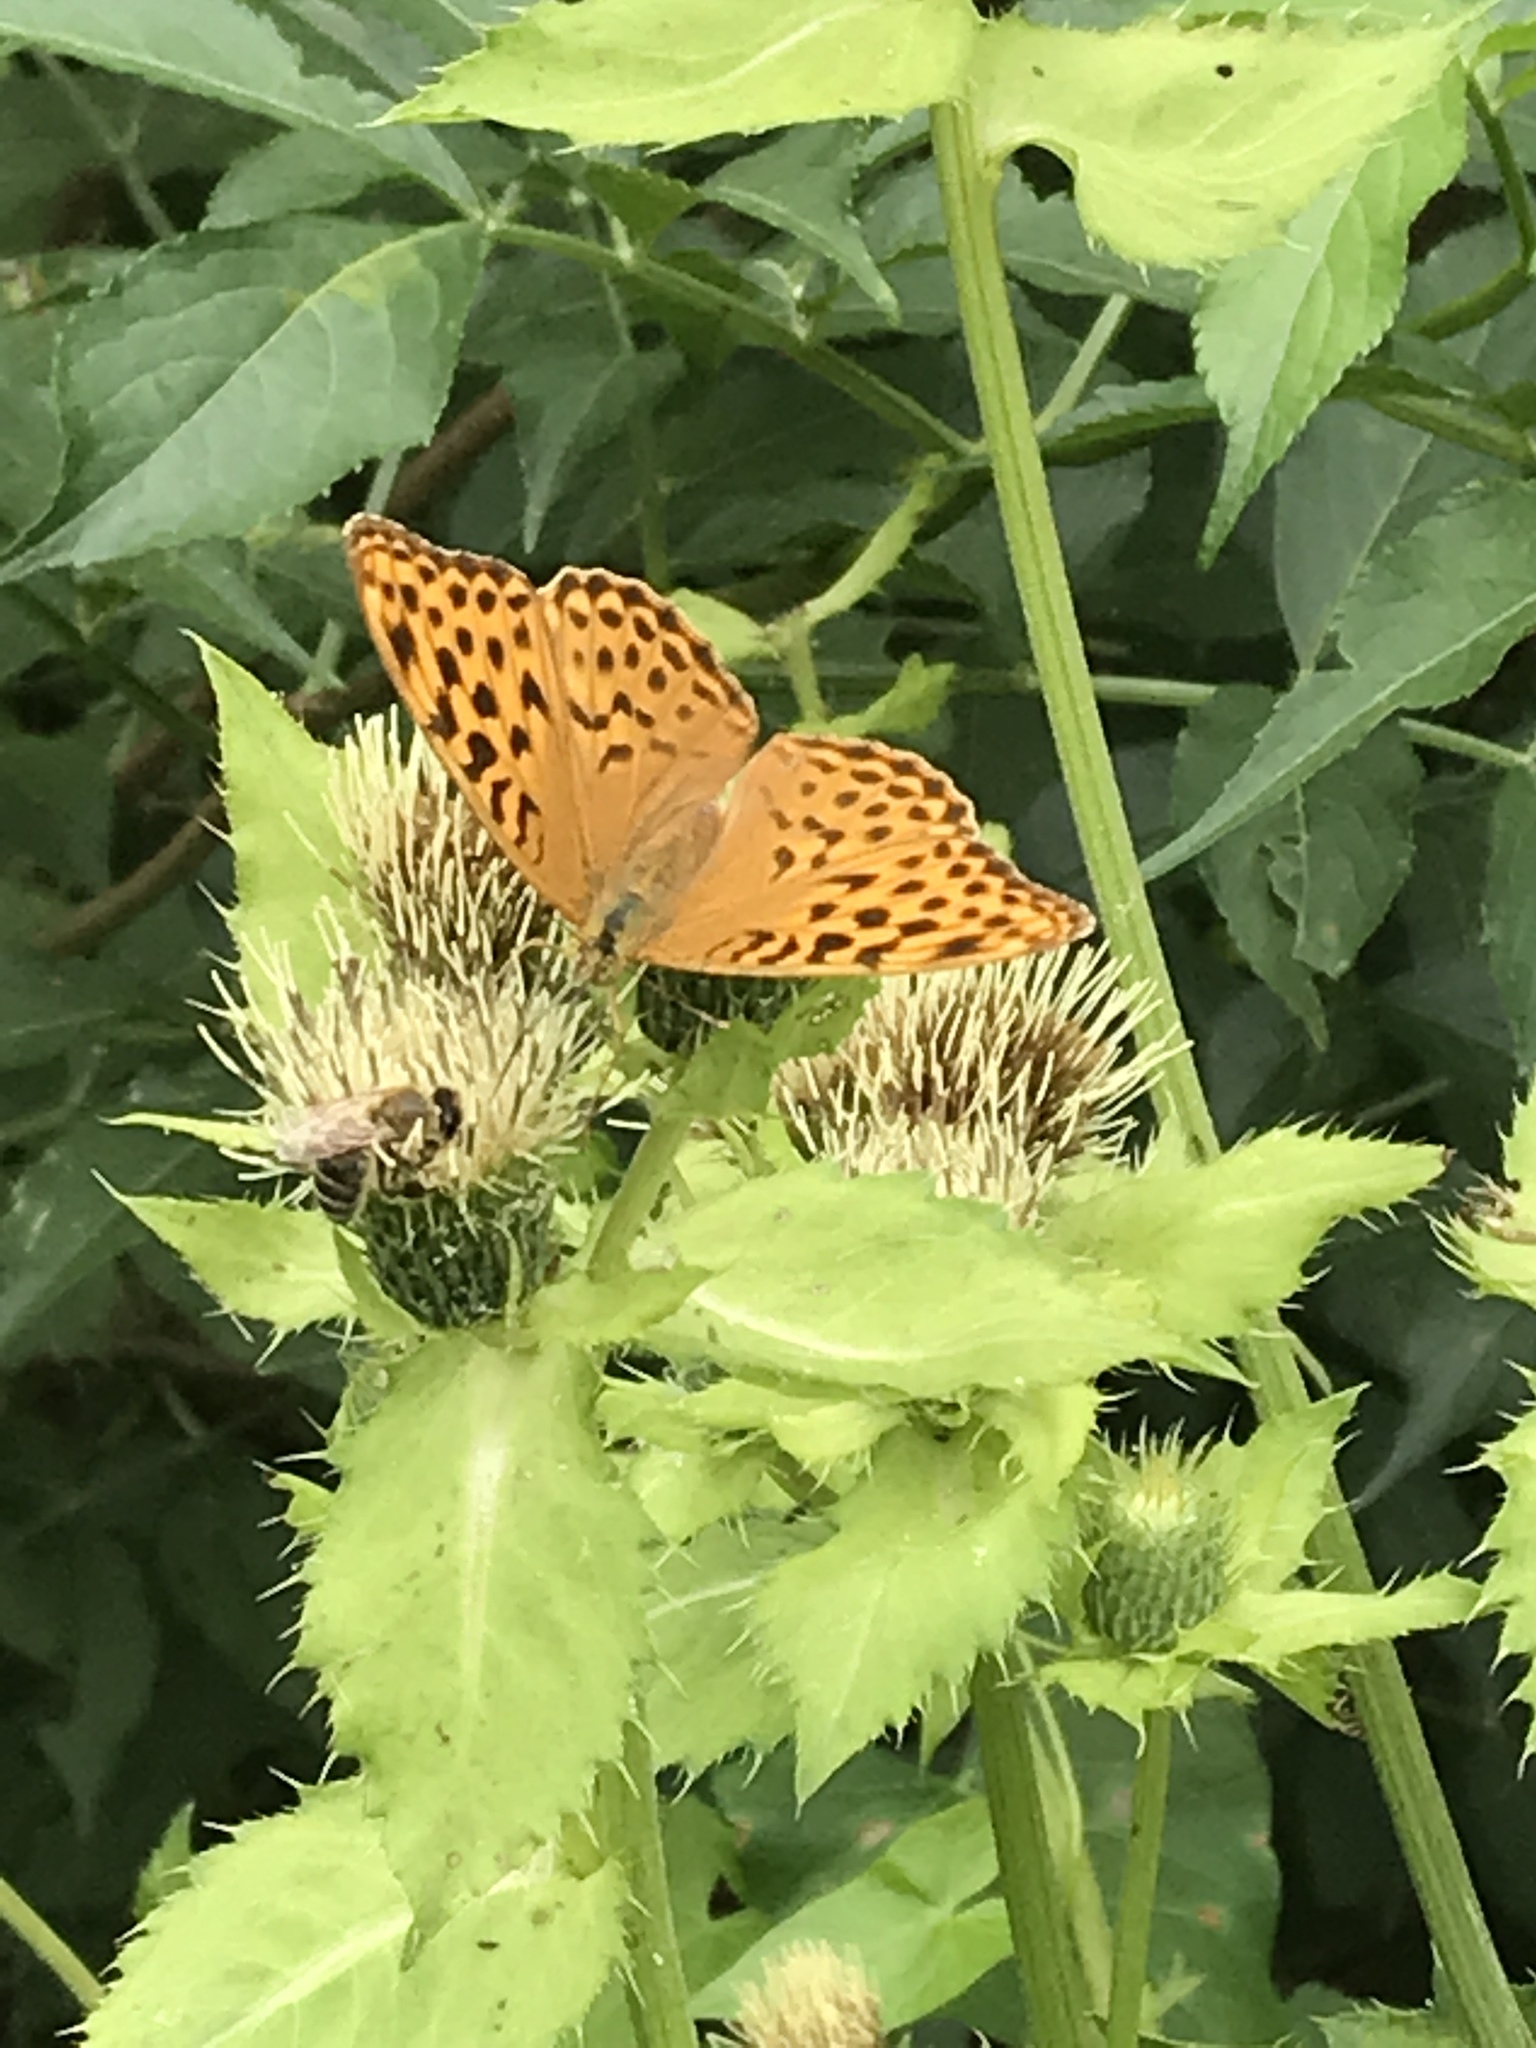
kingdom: Animalia
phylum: Arthropoda
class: Insecta
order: Lepidoptera
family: Nymphalidae
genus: Argynnis
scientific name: Argynnis paphia
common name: Silver-washed fritillary
